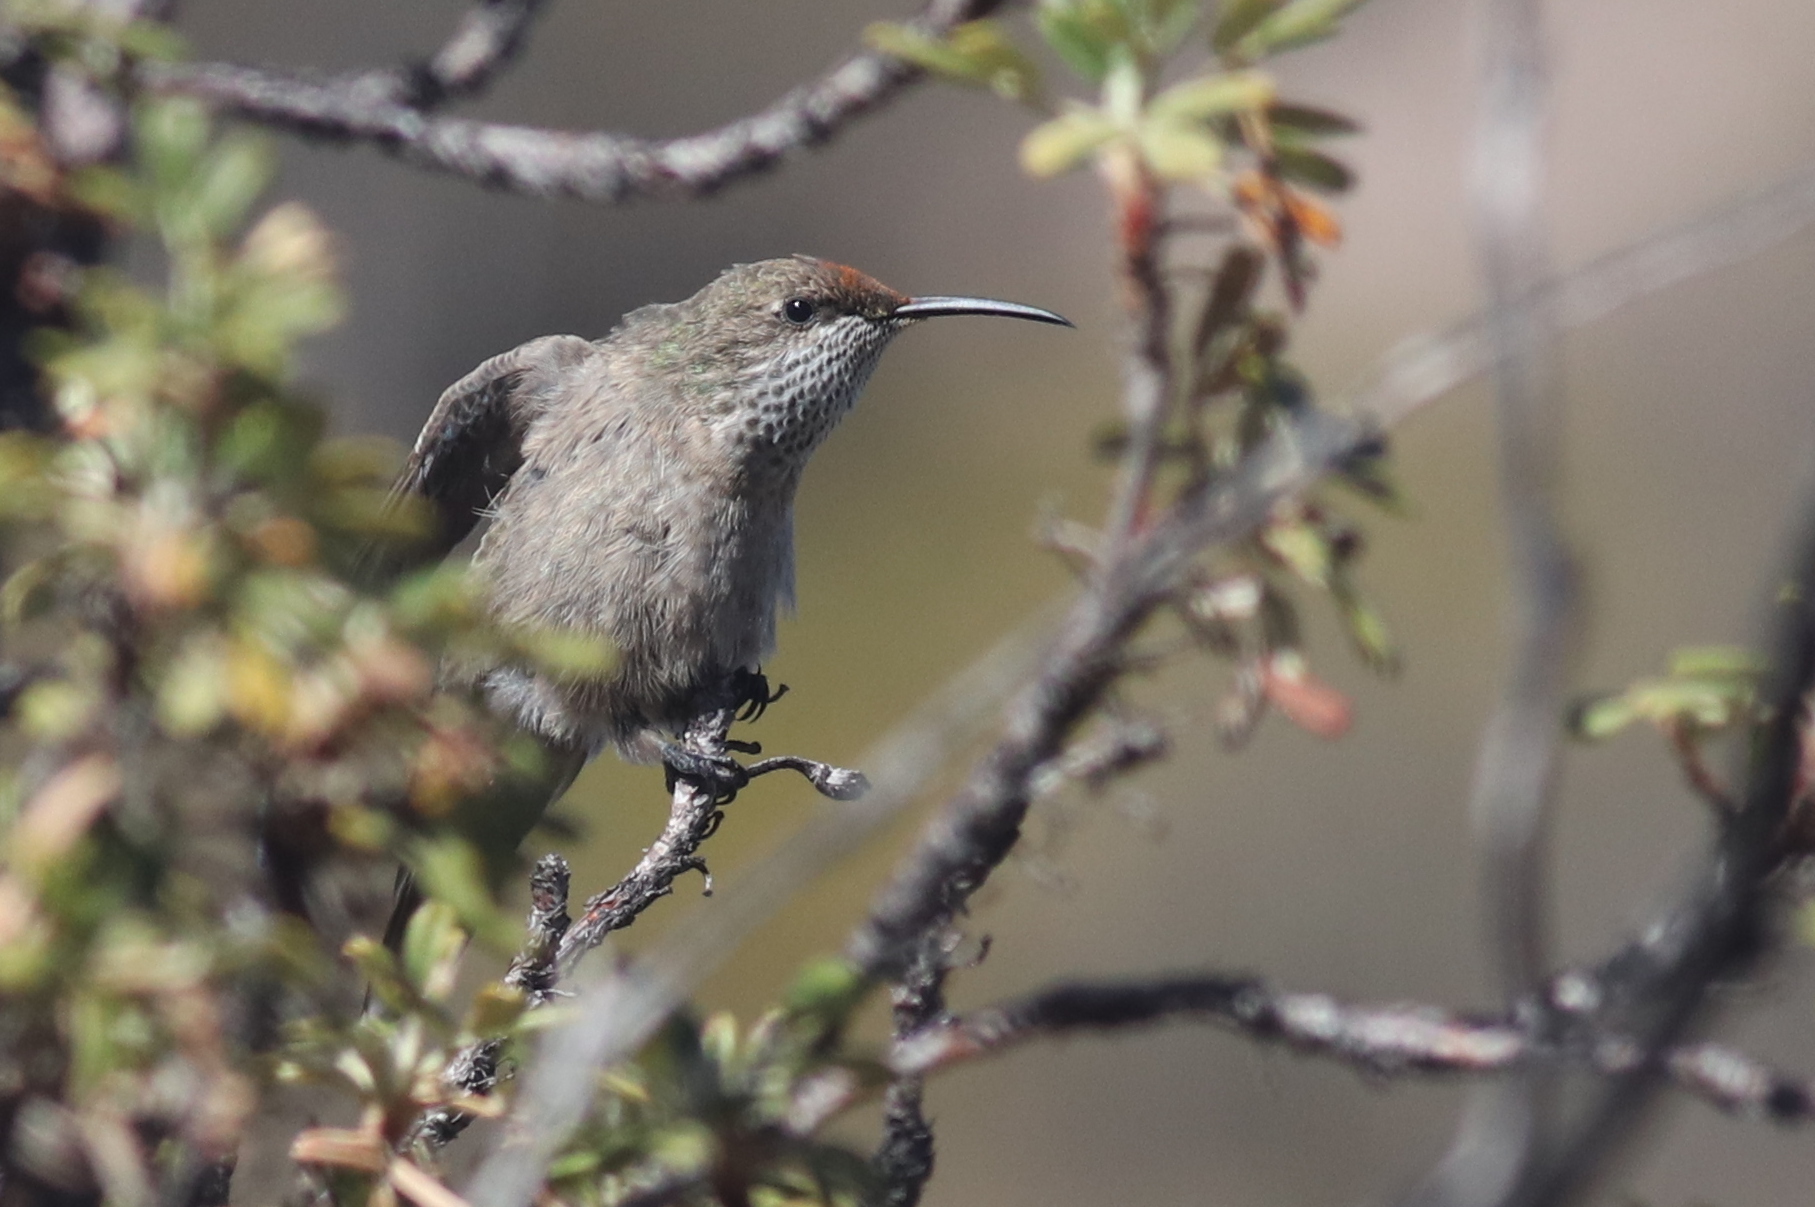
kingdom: Animalia
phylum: Chordata
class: Aves
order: Apodiformes
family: Trochilidae
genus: Oreotrochilus
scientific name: Oreotrochilus estella
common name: Andean hillstar
